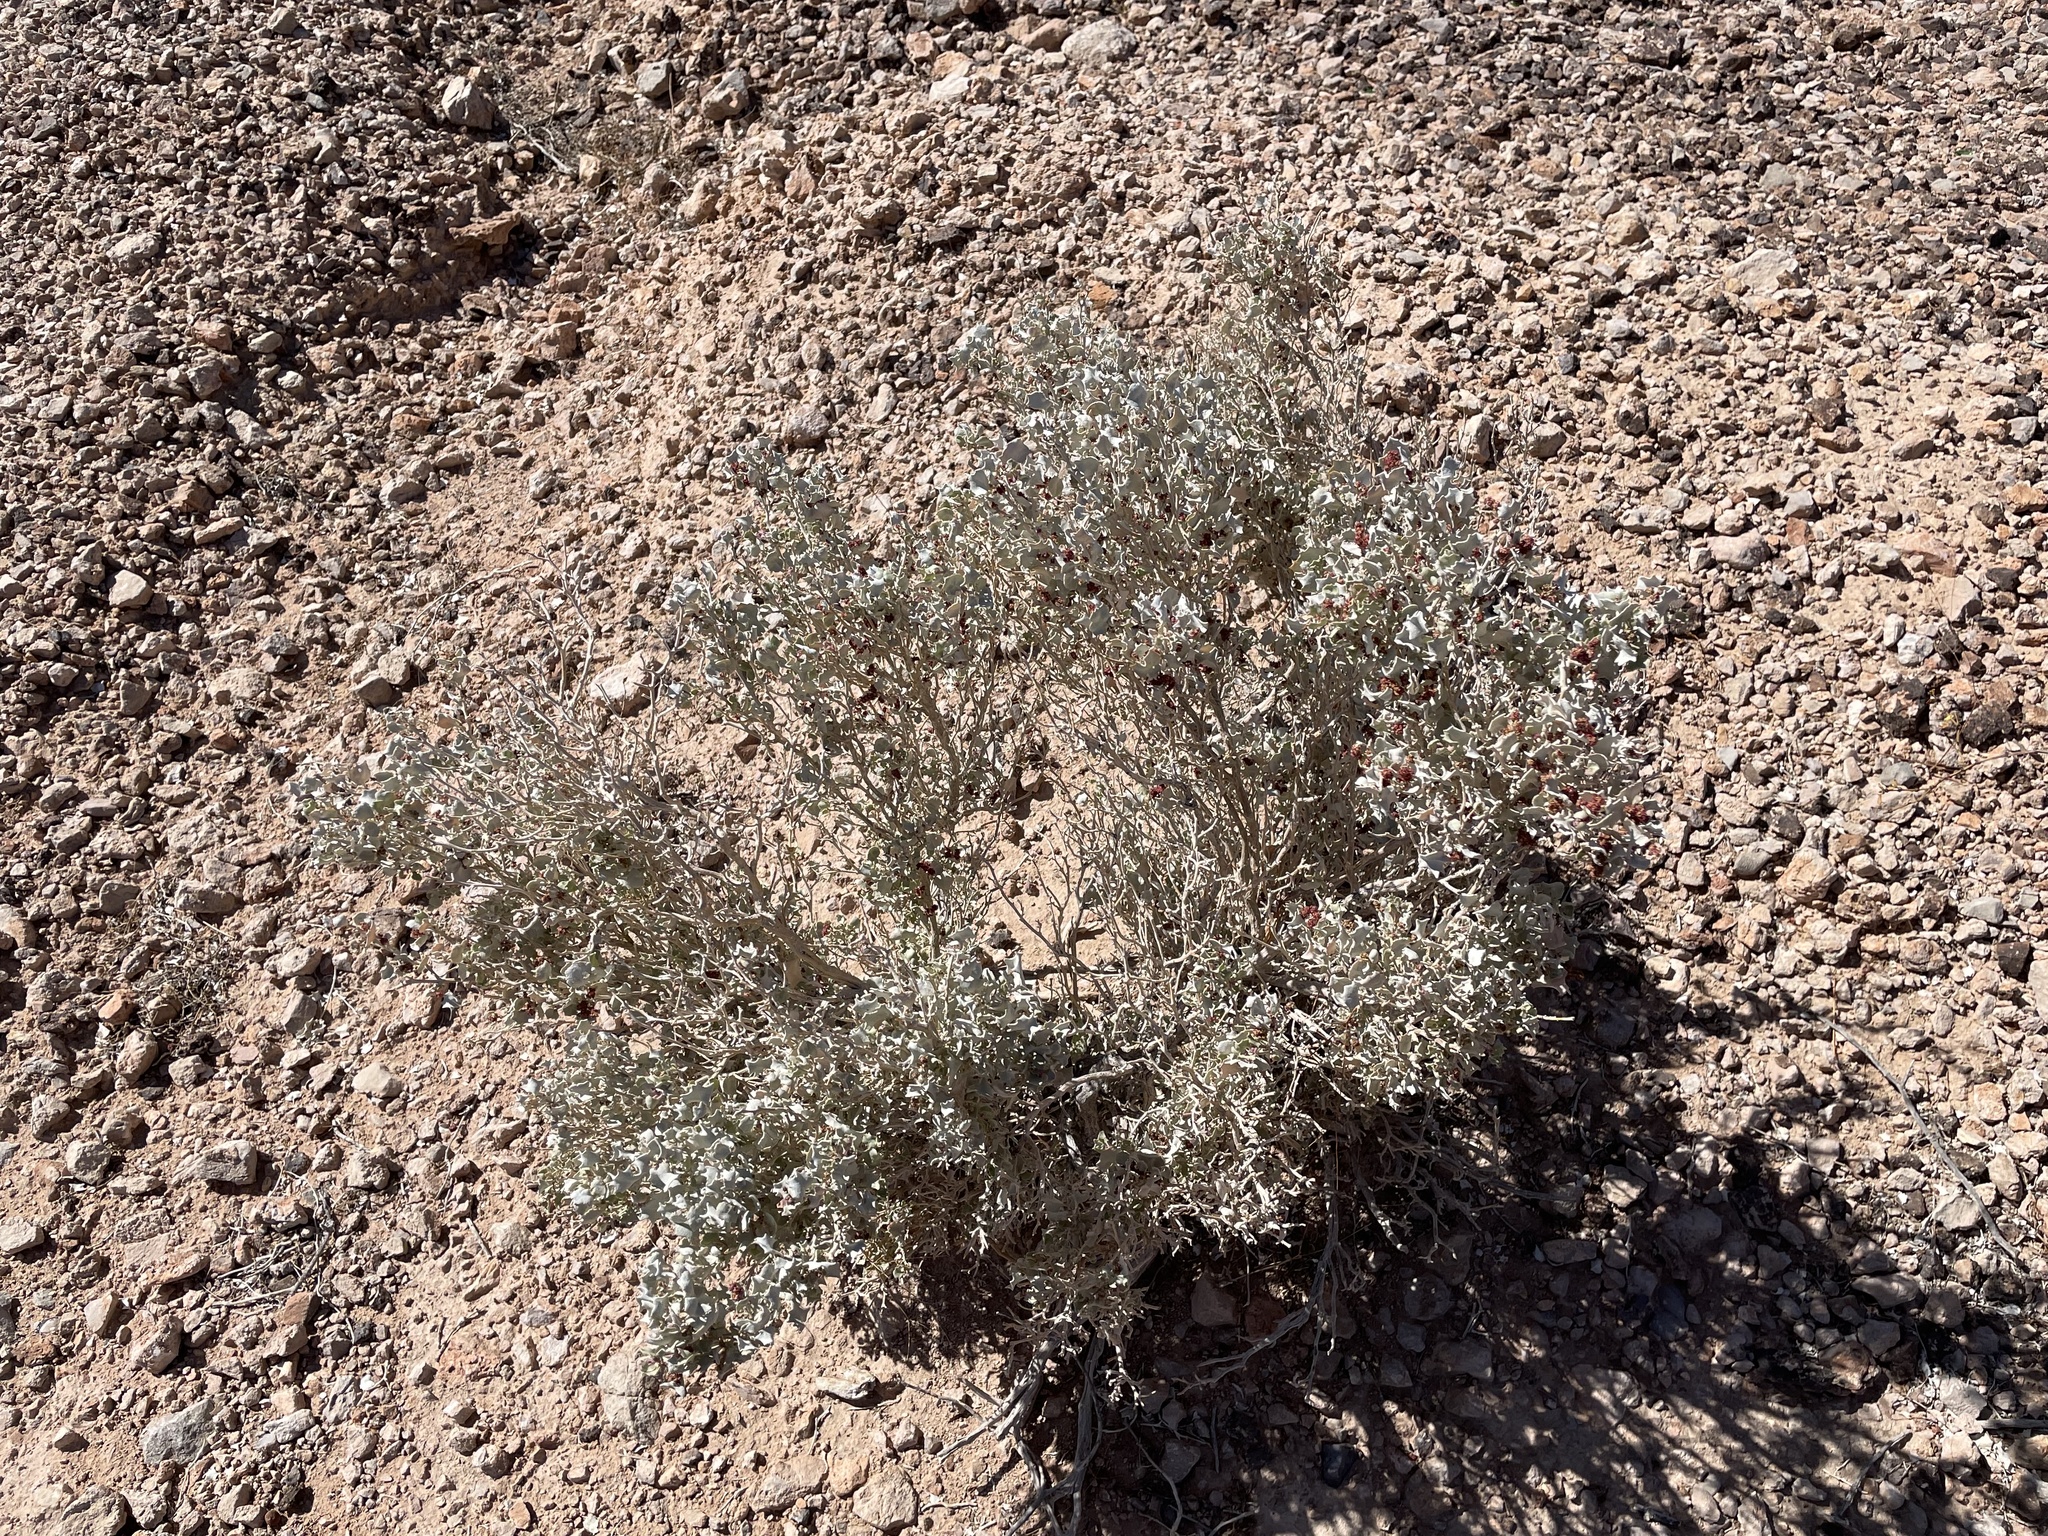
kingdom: Plantae
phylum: Tracheophyta
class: Magnoliopsida
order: Caryophyllales
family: Amaranthaceae
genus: Atriplex
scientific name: Atriplex hymenelytra
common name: Desert-holly
